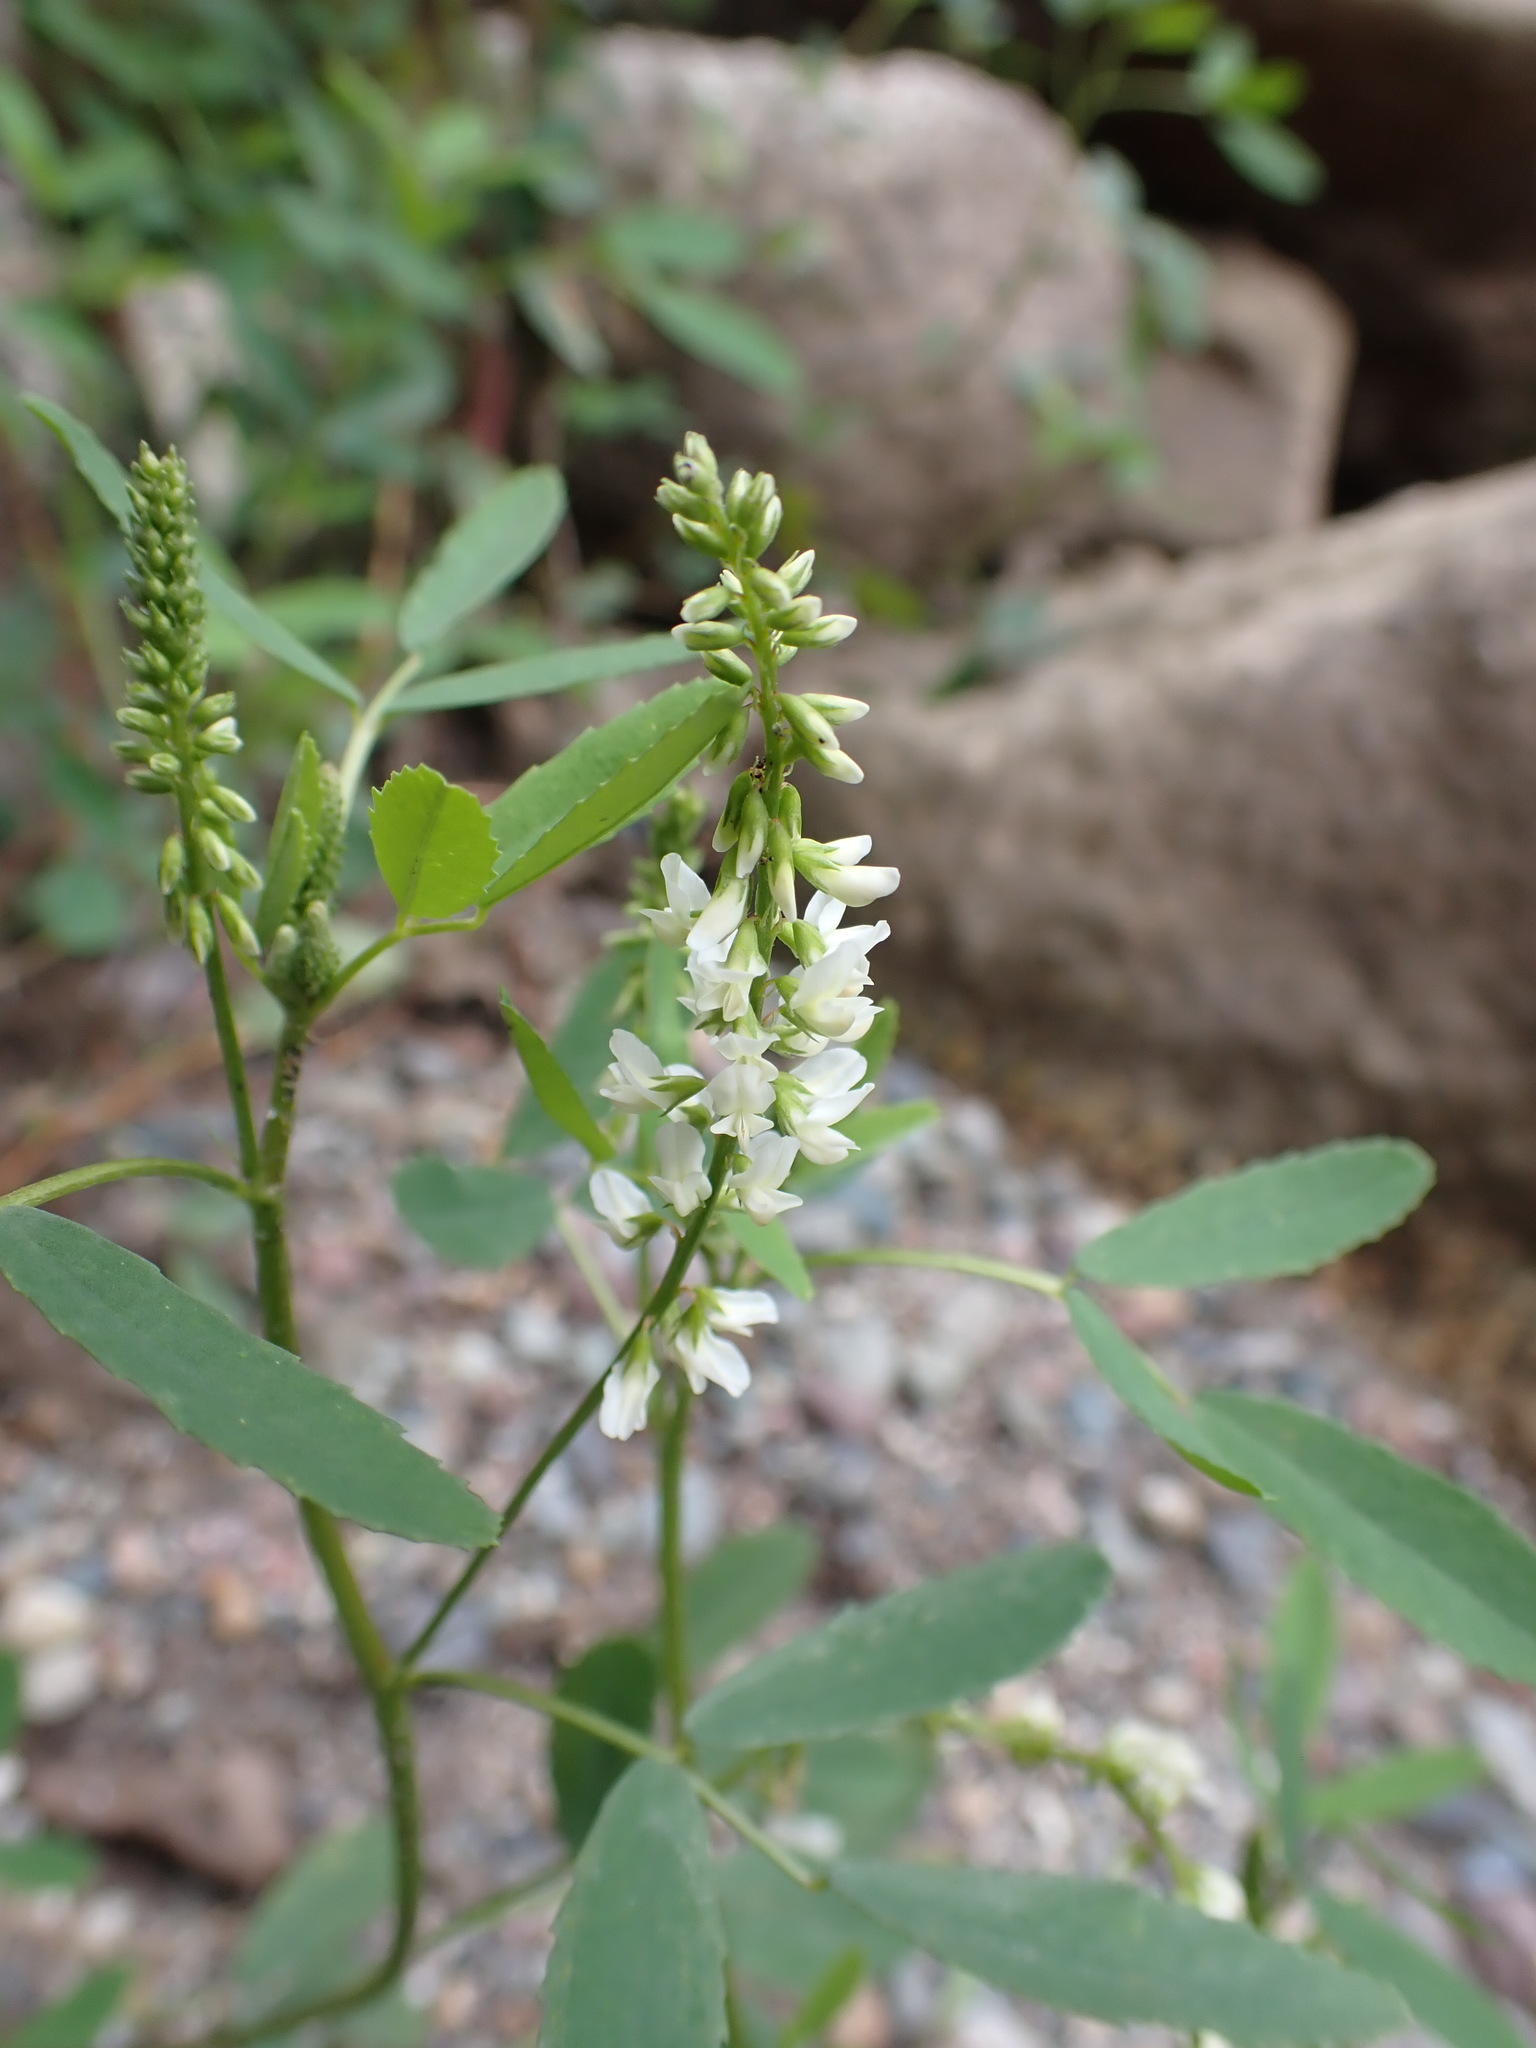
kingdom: Plantae
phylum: Tracheophyta
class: Magnoliopsida
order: Fabales
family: Fabaceae
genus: Melilotus
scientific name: Melilotus albus
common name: White melilot
